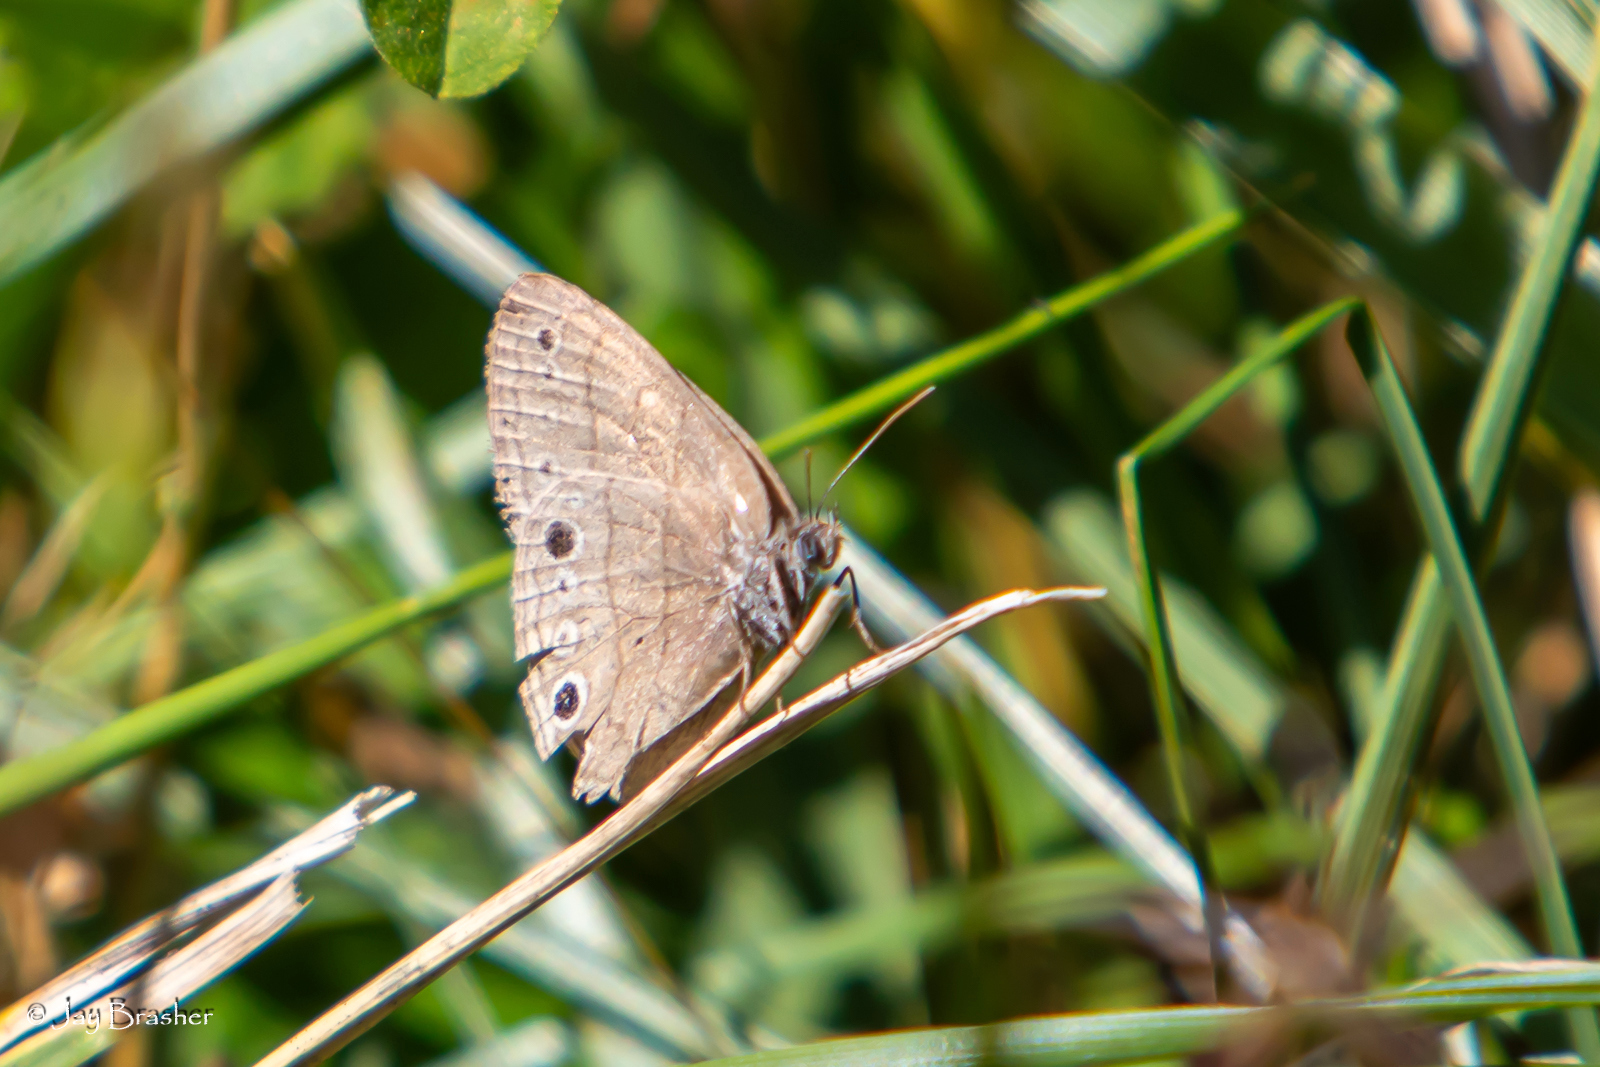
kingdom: Animalia
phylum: Arthropoda
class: Insecta
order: Lepidoptera
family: Nymphalidae
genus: Hermeuptychia
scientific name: Hermeuptychia hermes
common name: Hermes satyr
